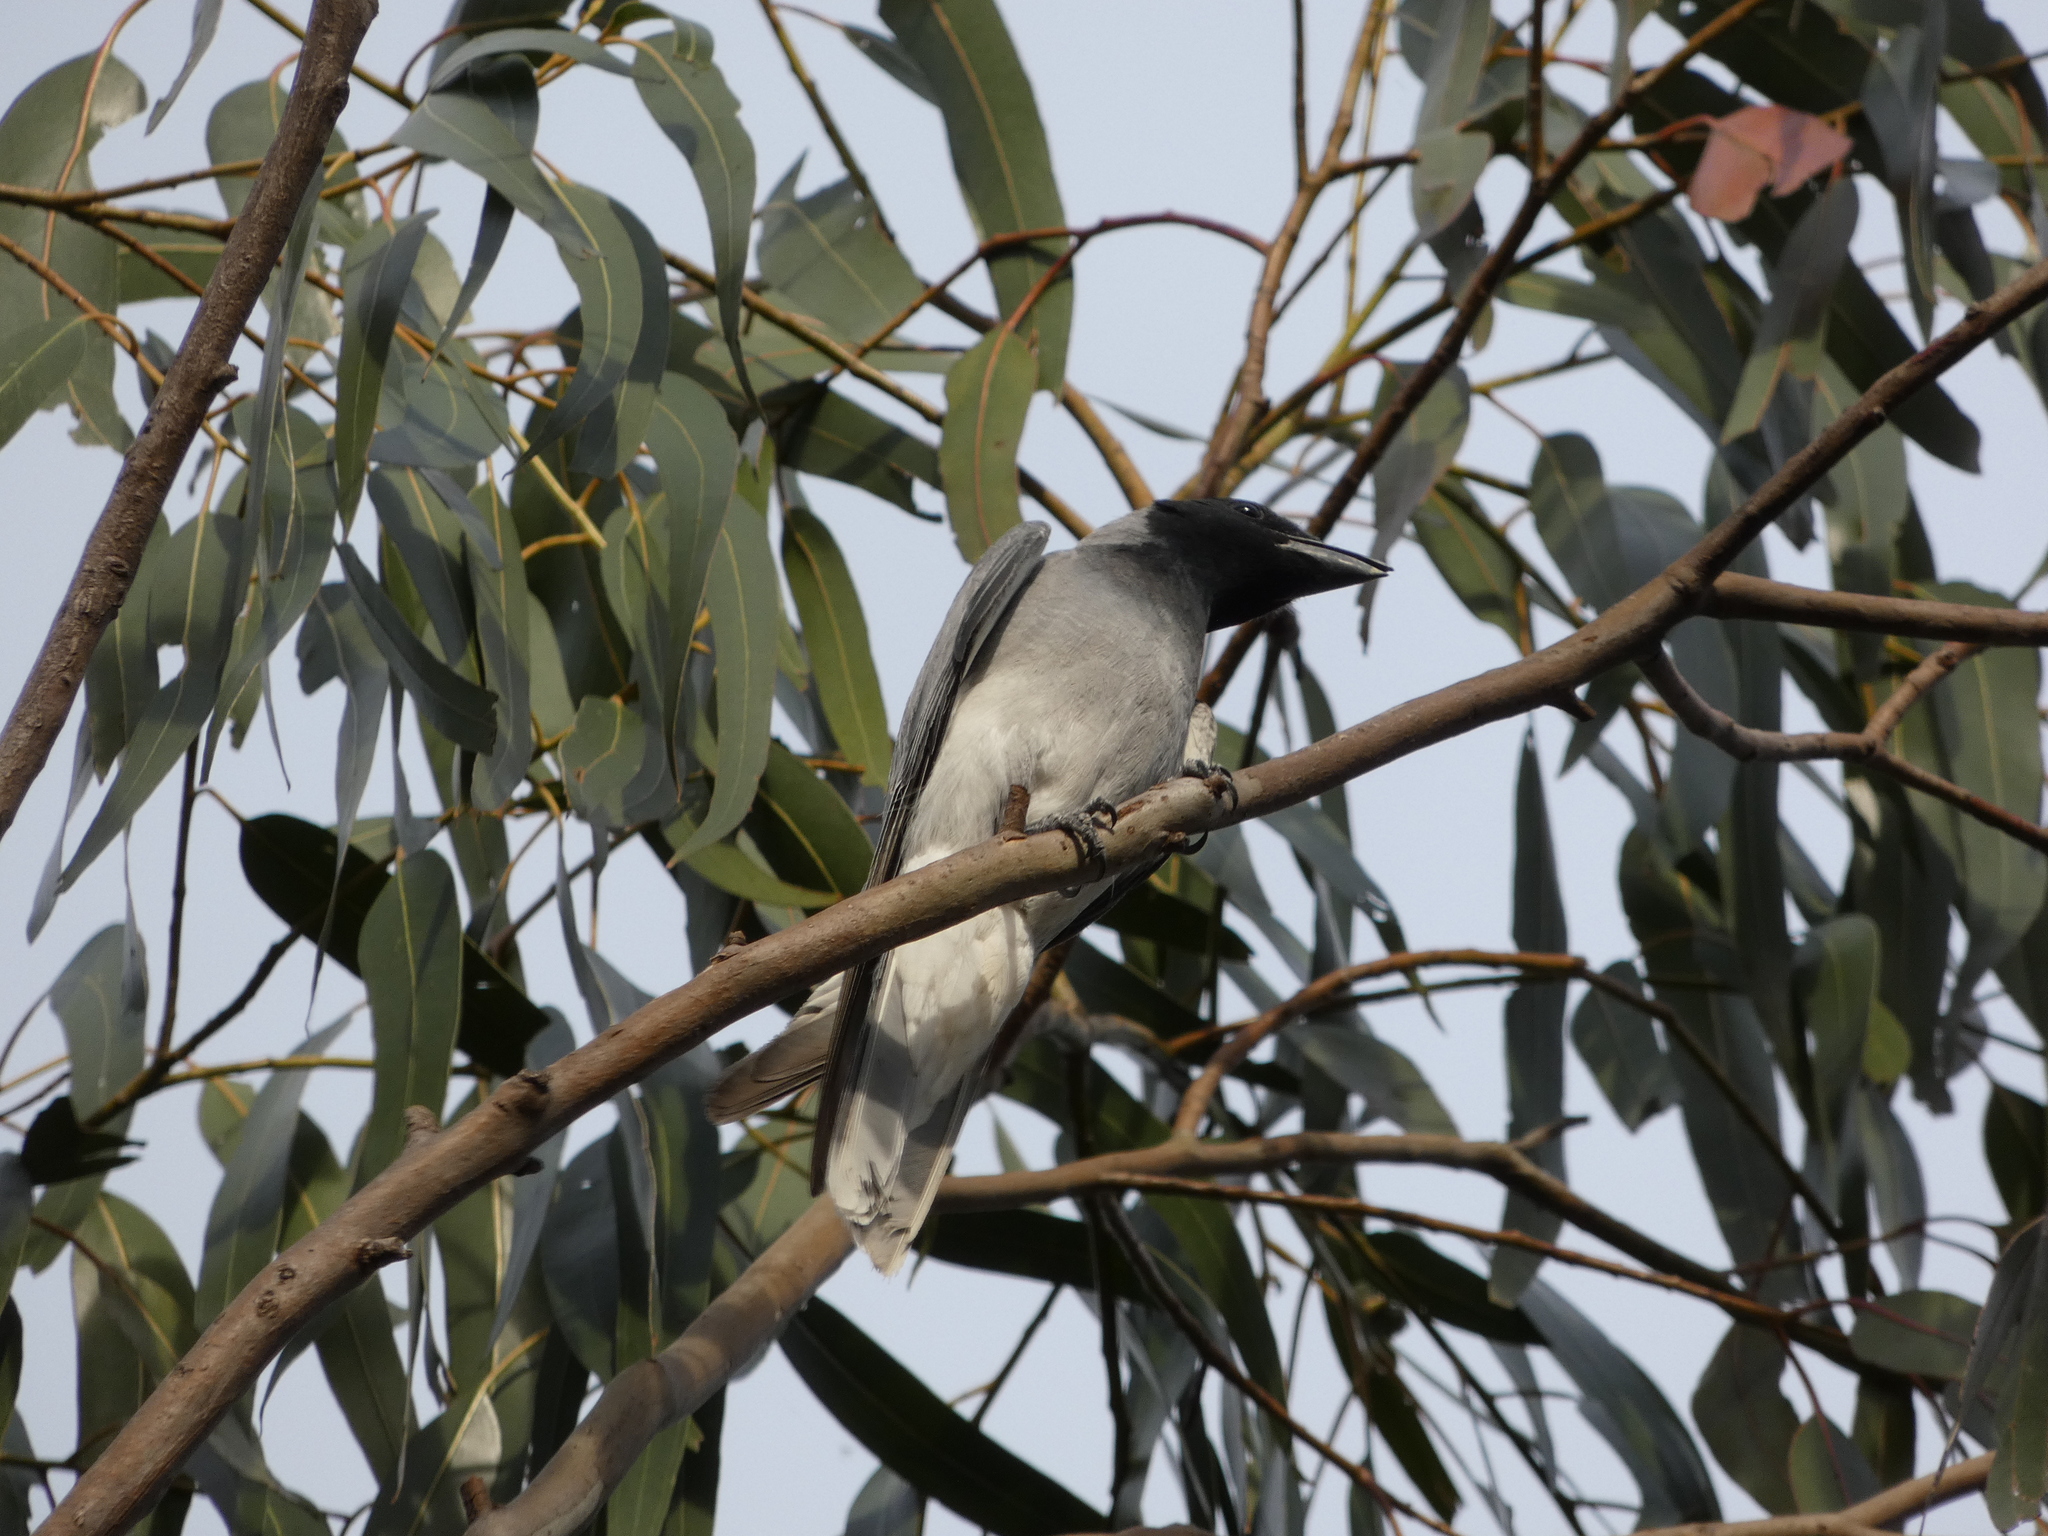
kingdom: Animalia
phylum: Chordata
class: Aves
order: Passeriformes
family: Campephagidae
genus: Coracina
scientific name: Coracina novaehollandiae
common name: Black-faced cuckooshrike
